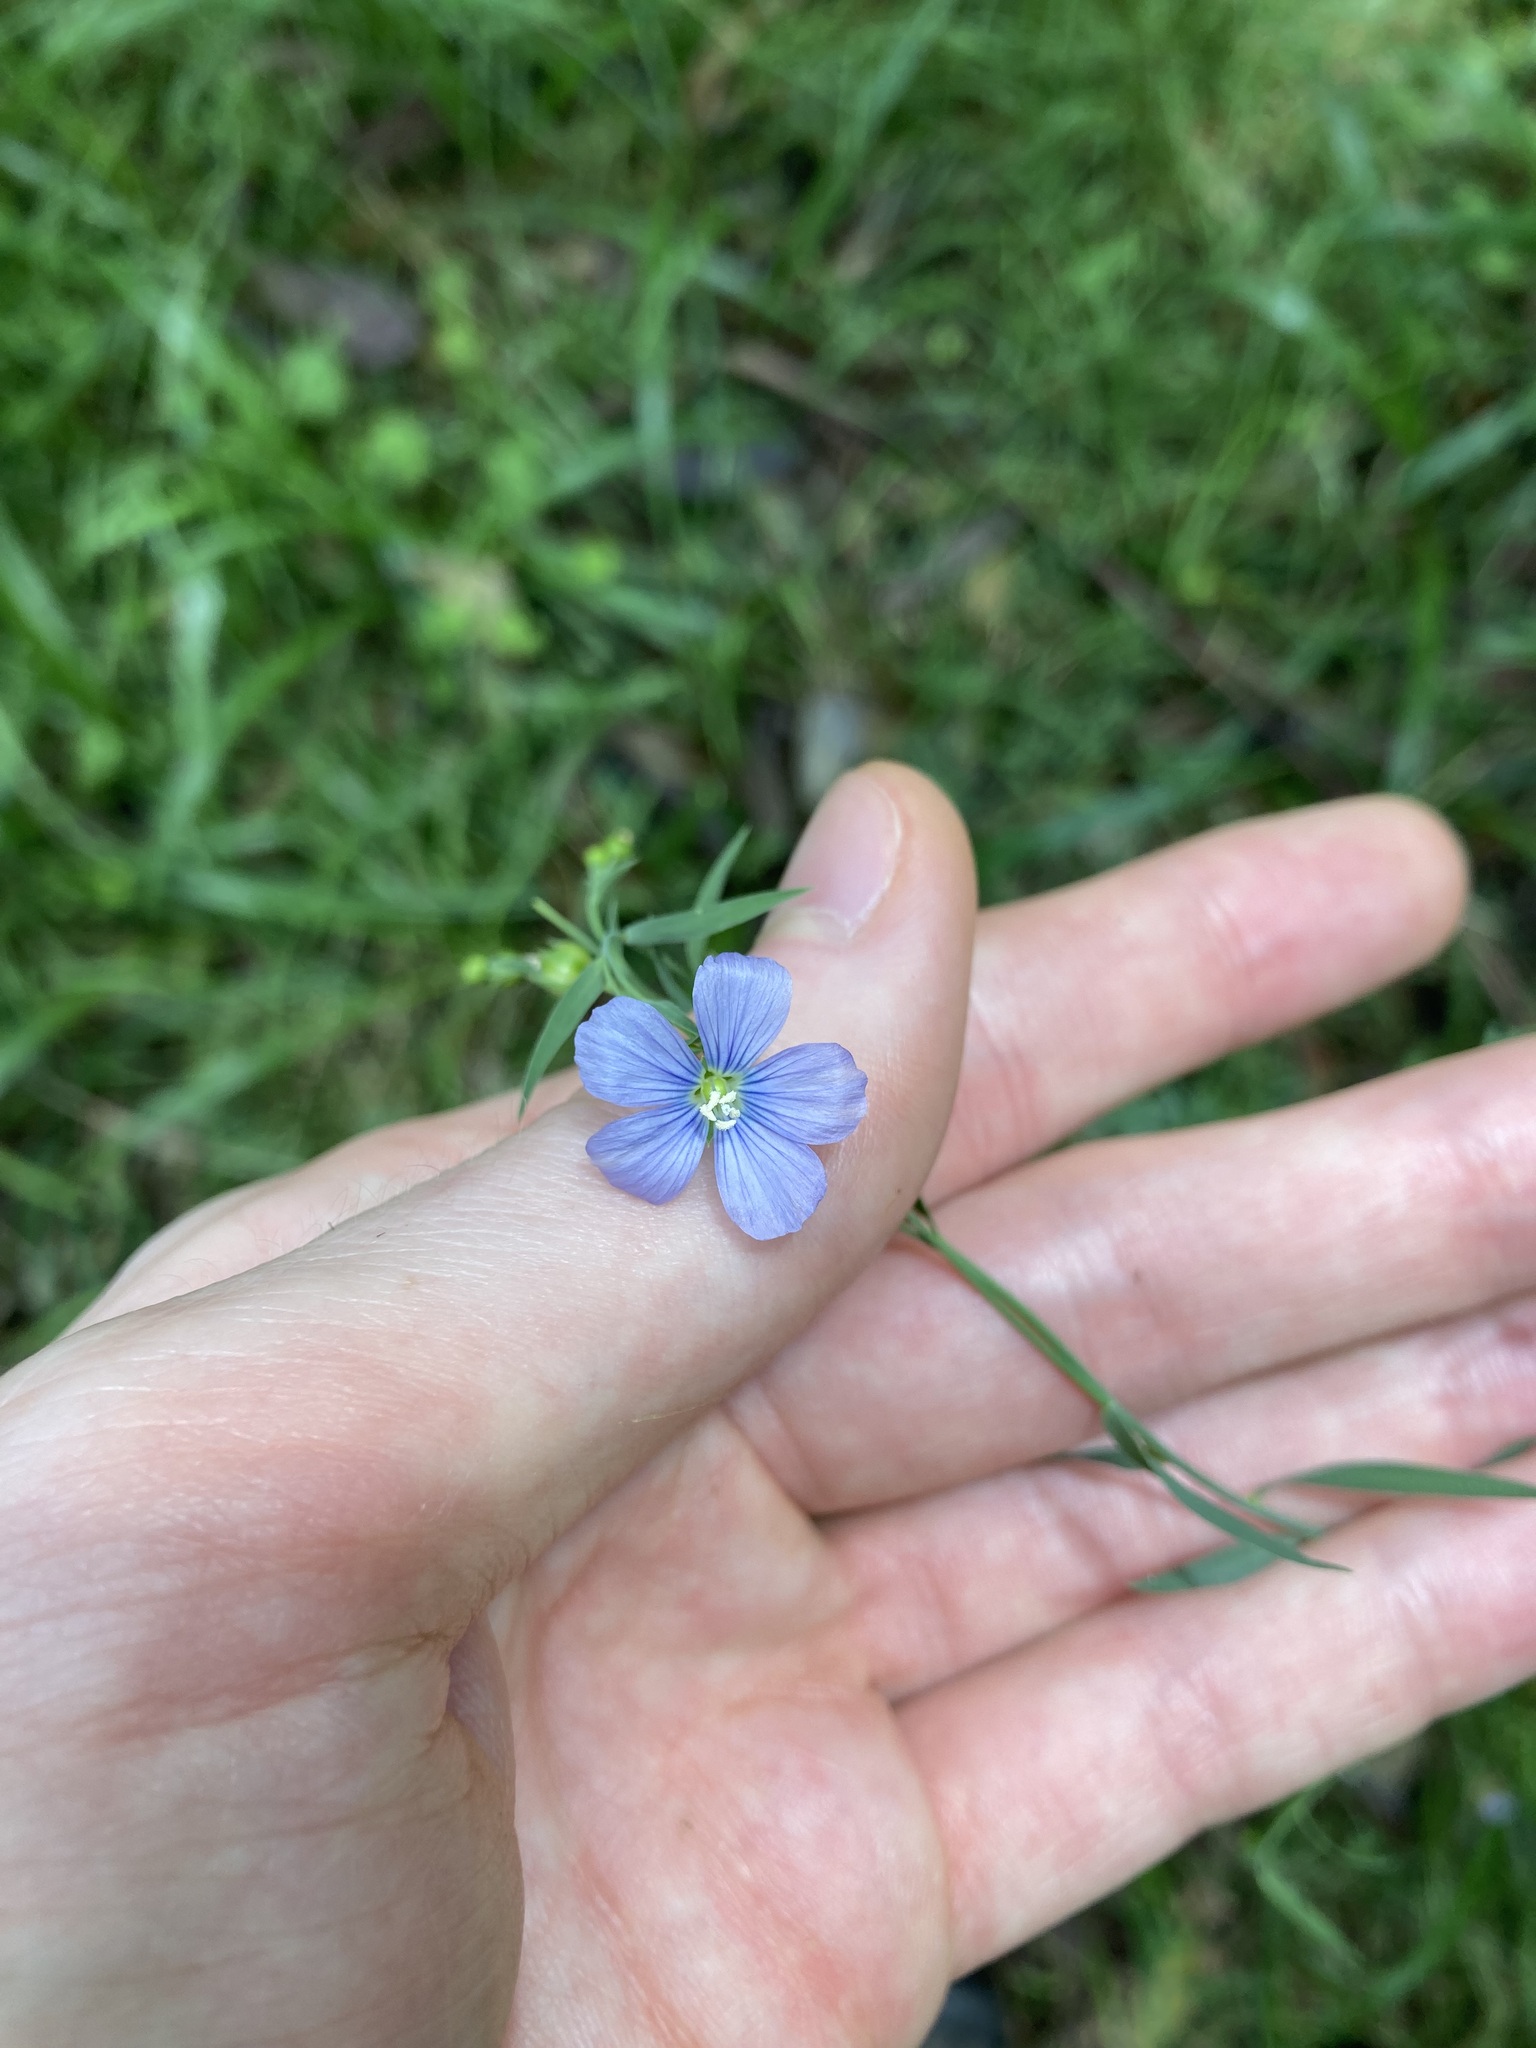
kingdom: Plantae
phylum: Tracheophyta
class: Magnoliopsida
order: Malpighiales
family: Linaceae
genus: Linum
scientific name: Linum marginale
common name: Wild flax
